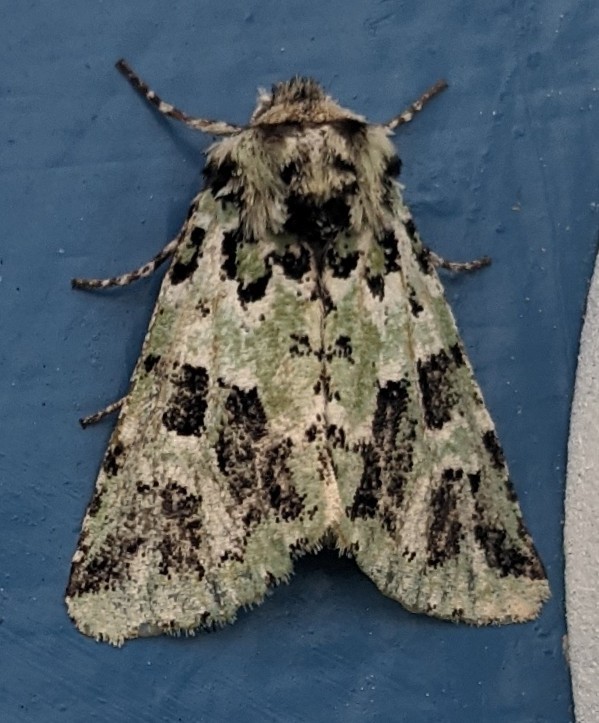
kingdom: Animalia
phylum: Arthropoda
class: Insecta
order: Lepidoptera
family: Noctuidae
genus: Feralia
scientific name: Feralia comstocki
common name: Comstock's sallow
